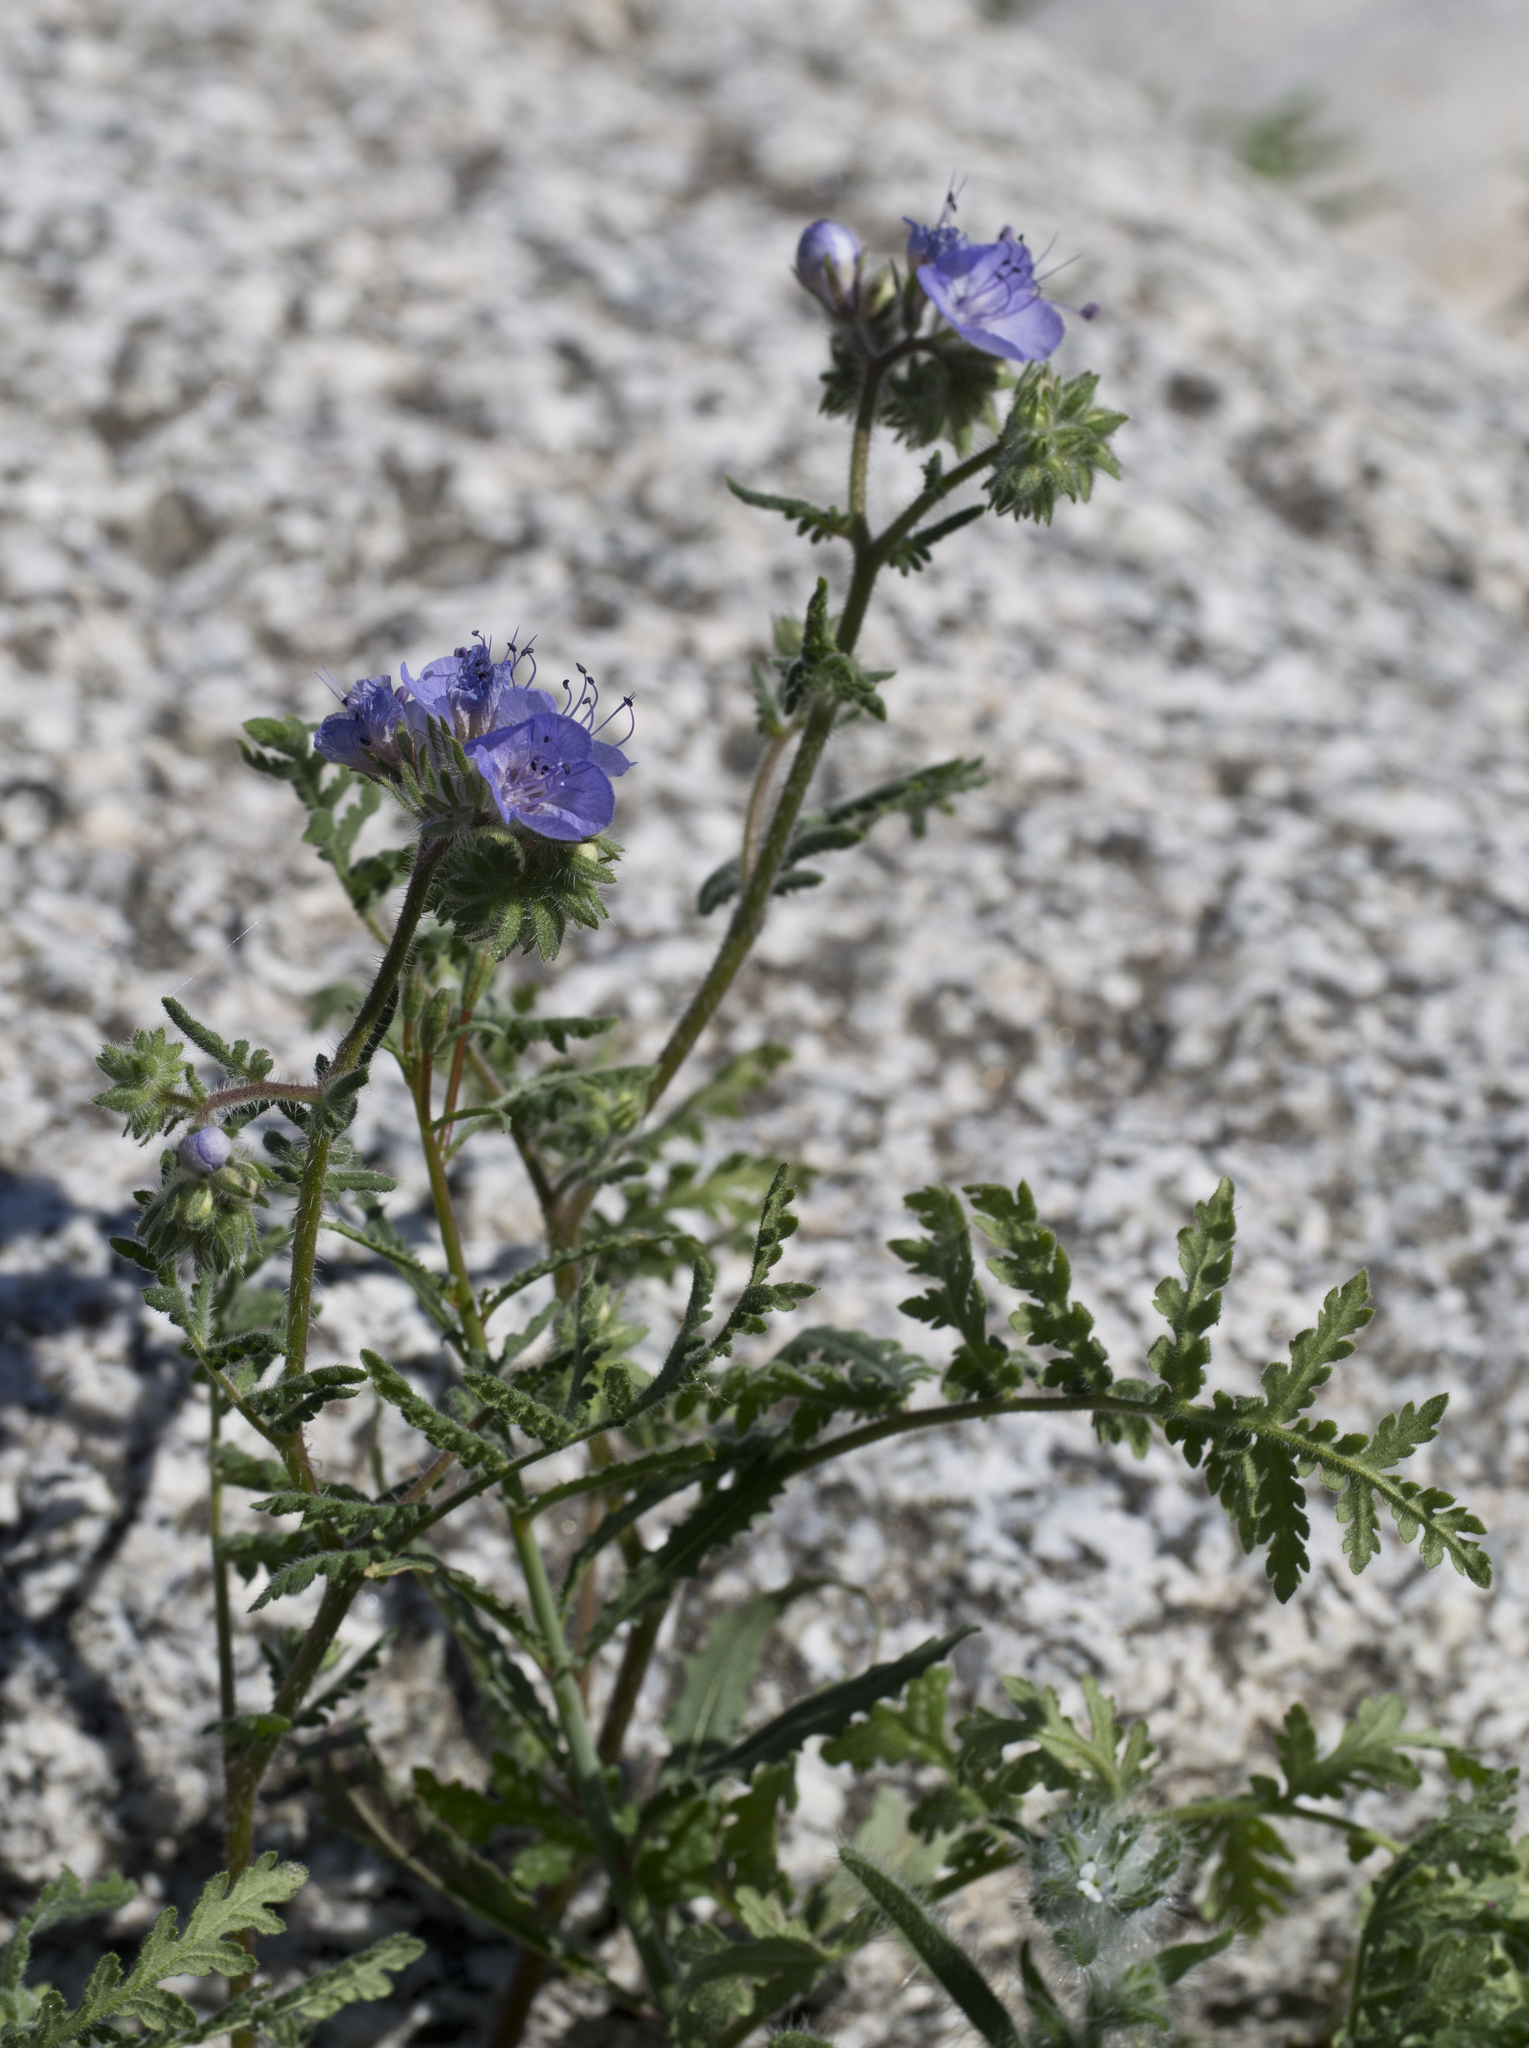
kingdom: Plantae
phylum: Tracheophyta
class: Magnoliopsida
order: Boraginales
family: Hydrophyllaceae
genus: Phacelia
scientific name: Phacelia distans
